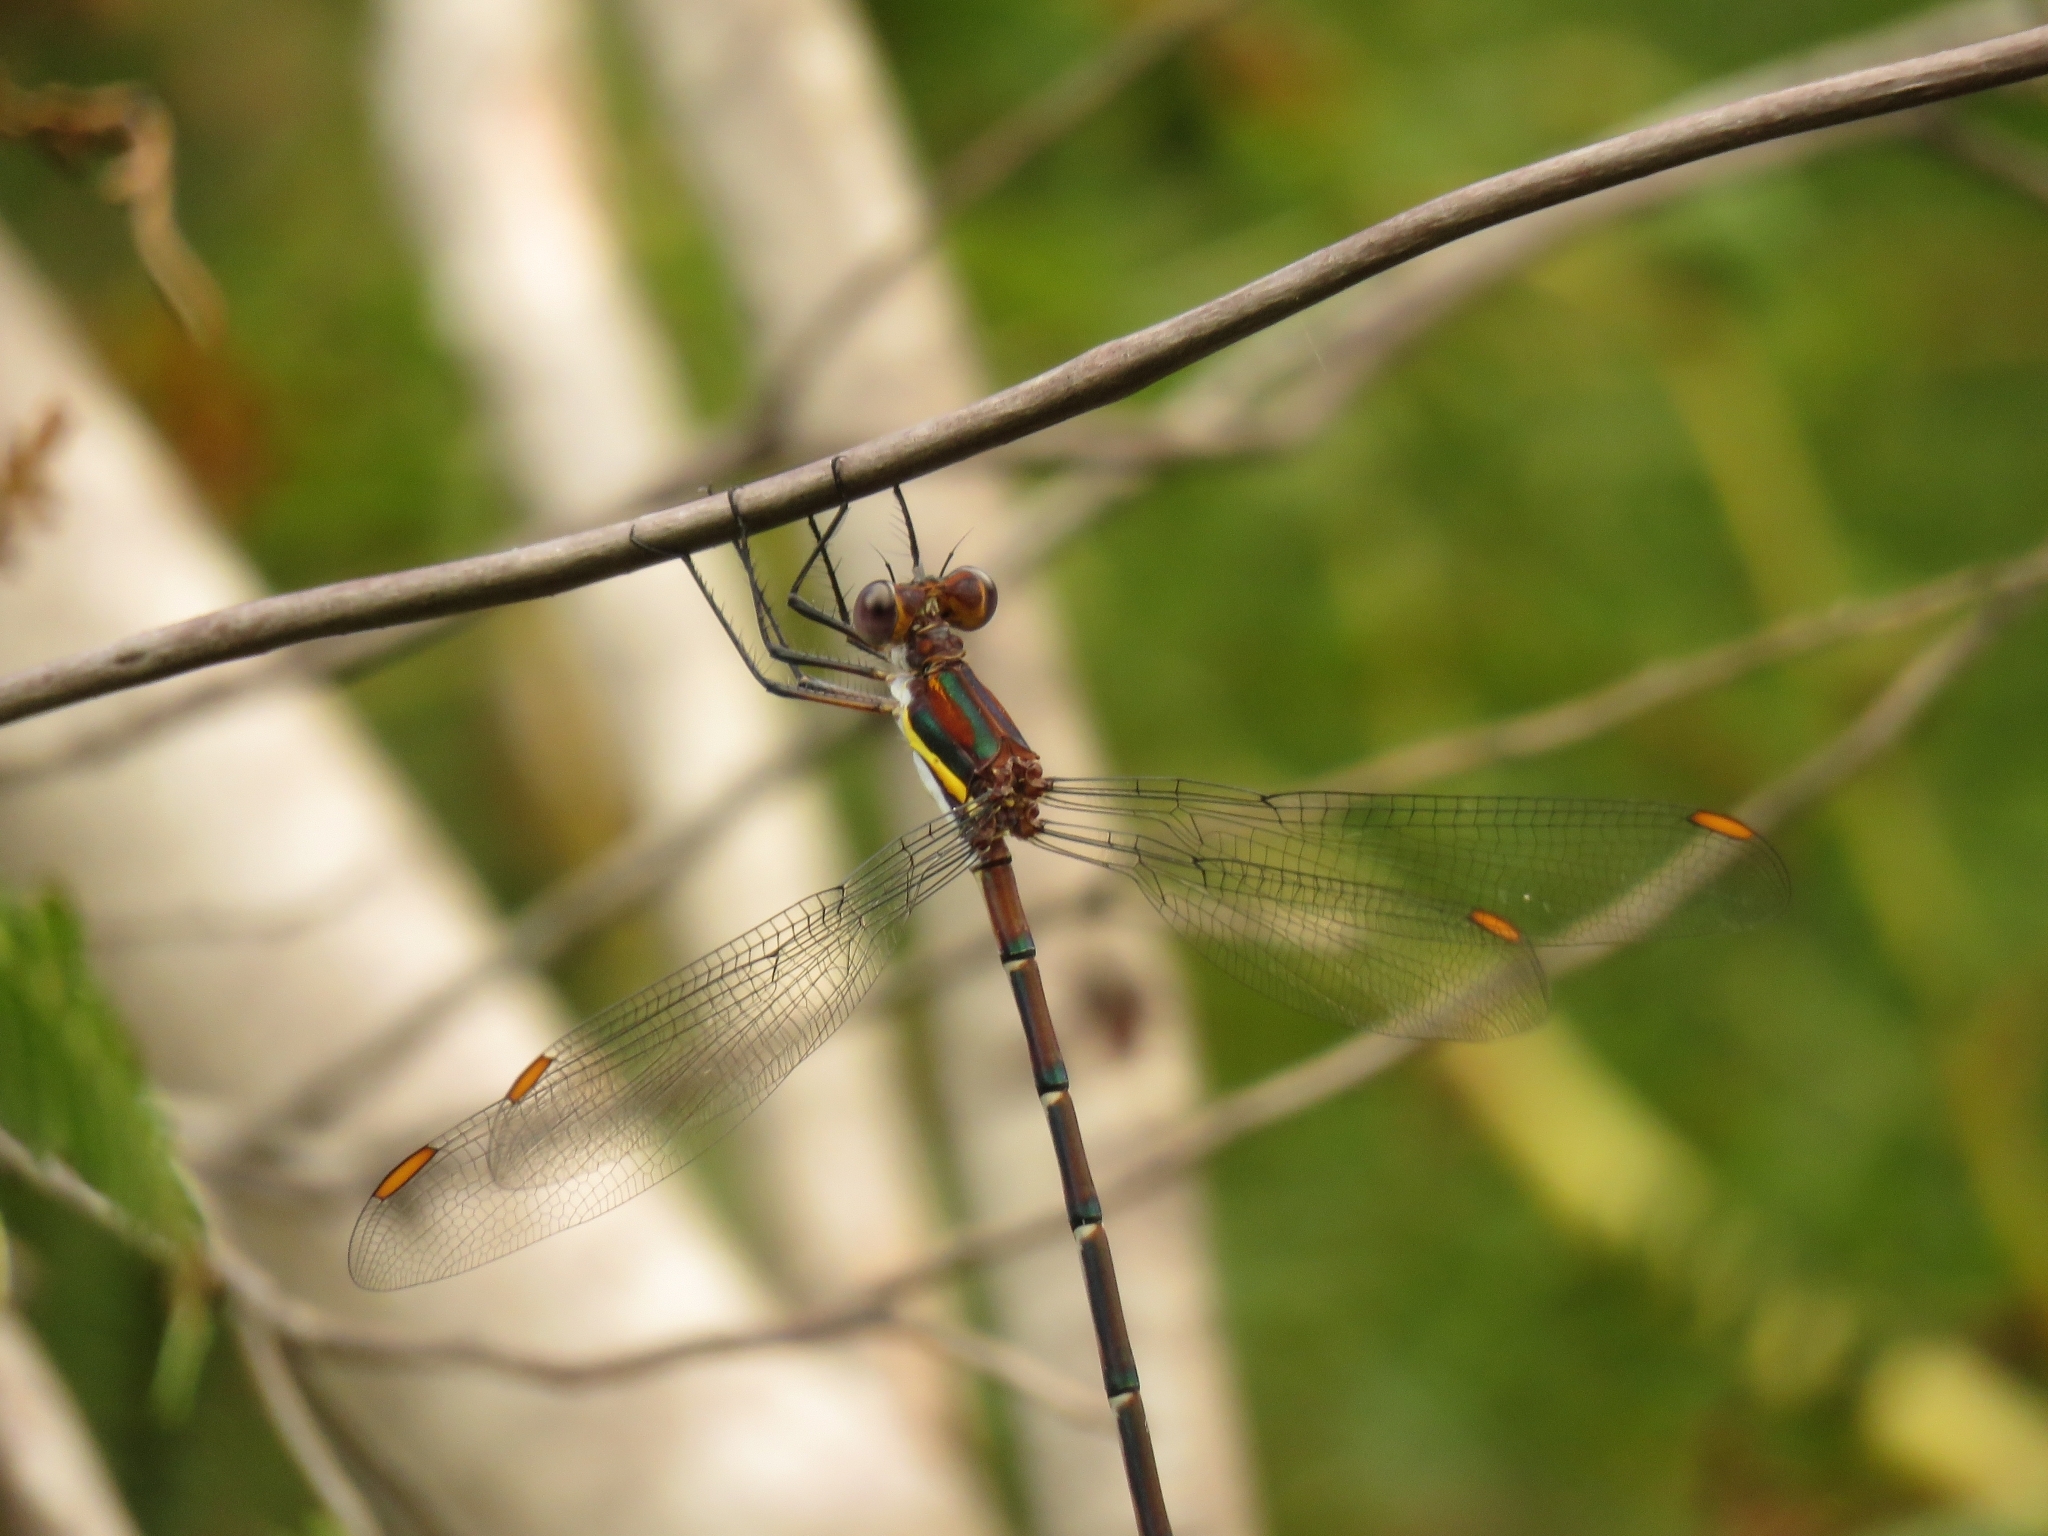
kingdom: Animalia
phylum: Arthropoda
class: Insecta
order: Odonata
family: Synlestidae
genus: Chlorolestes
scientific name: Chlorolestes conspicuus
